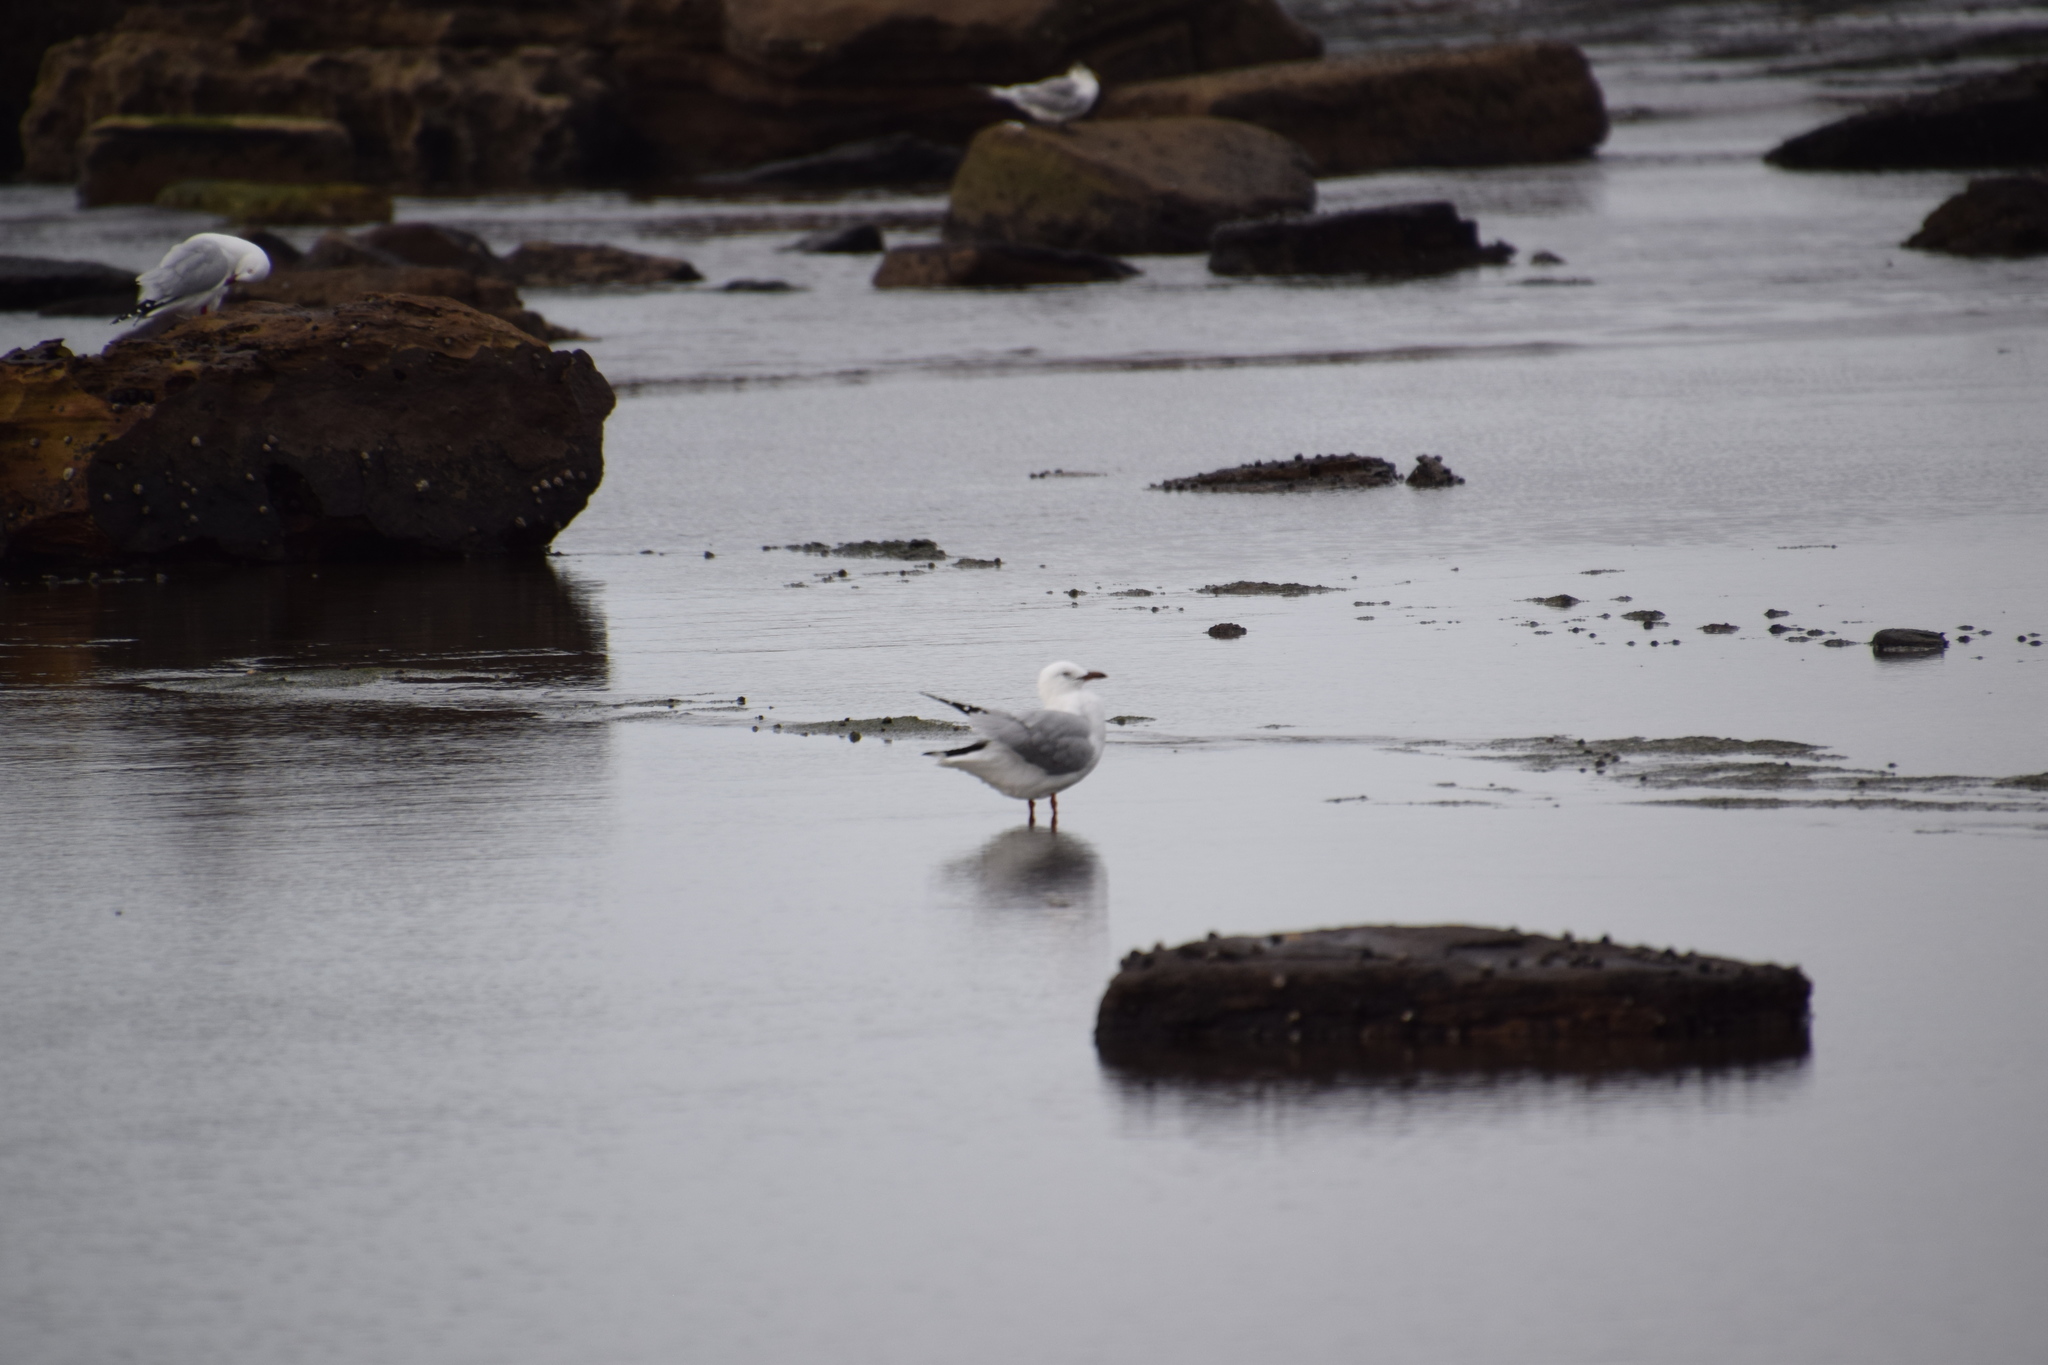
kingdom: Animalia
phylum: Chordata
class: Aves
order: Charadriiformes
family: Laridae
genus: Chroicocephalus
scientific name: Chroicocephalus novaehollandiae
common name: Silver gull
